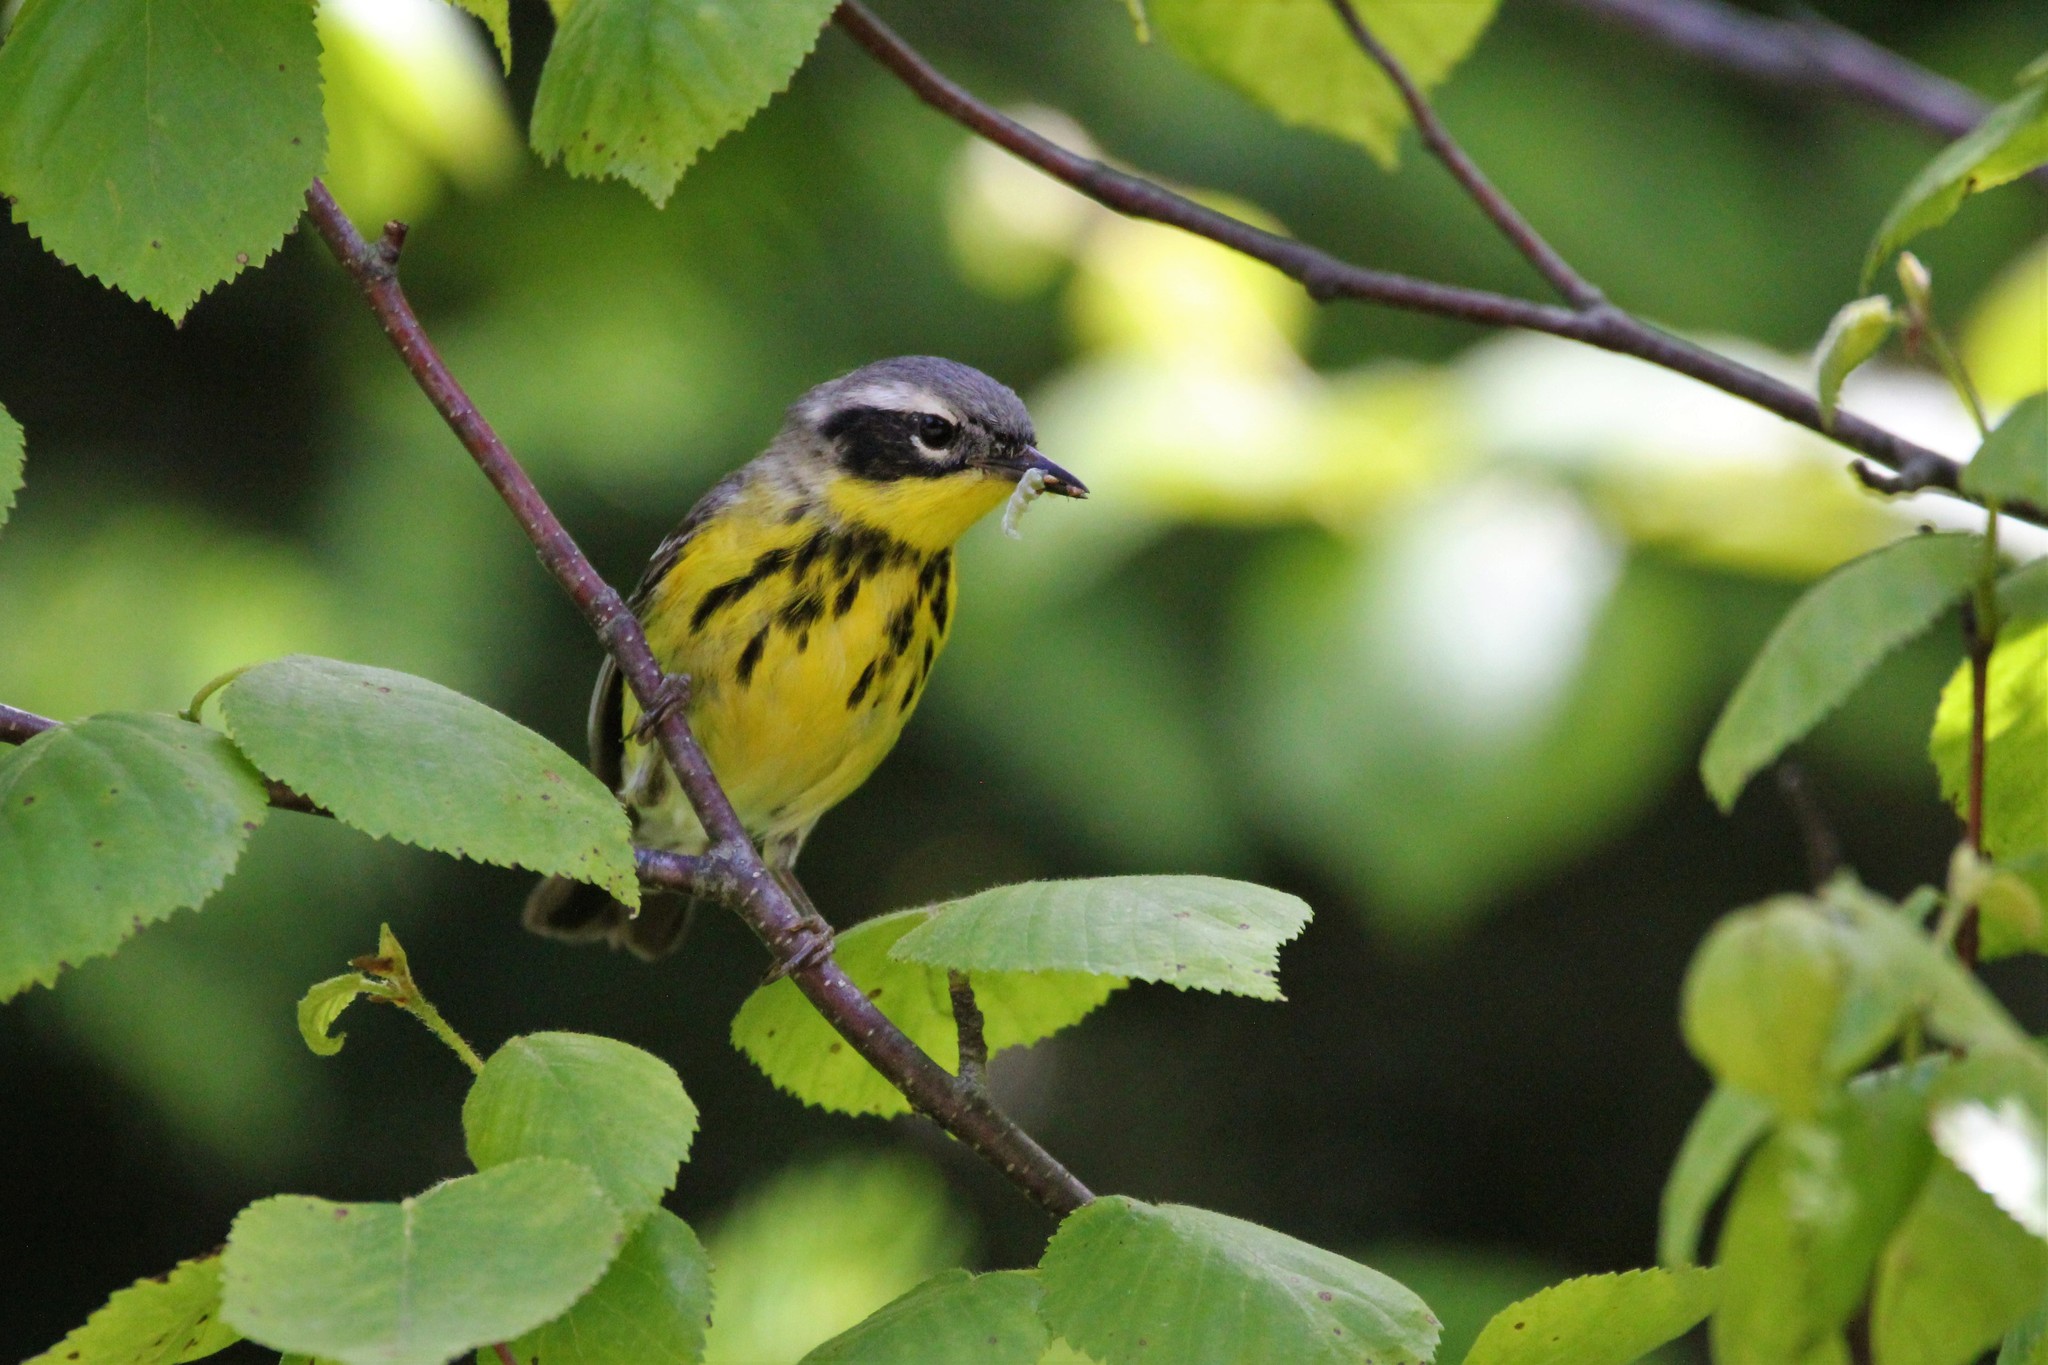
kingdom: Animalia
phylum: Chordata
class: Aves
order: Passeriformes
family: Parulidae
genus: Setophaga
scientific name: Setophaga magnolia
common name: Magnolia warbler
